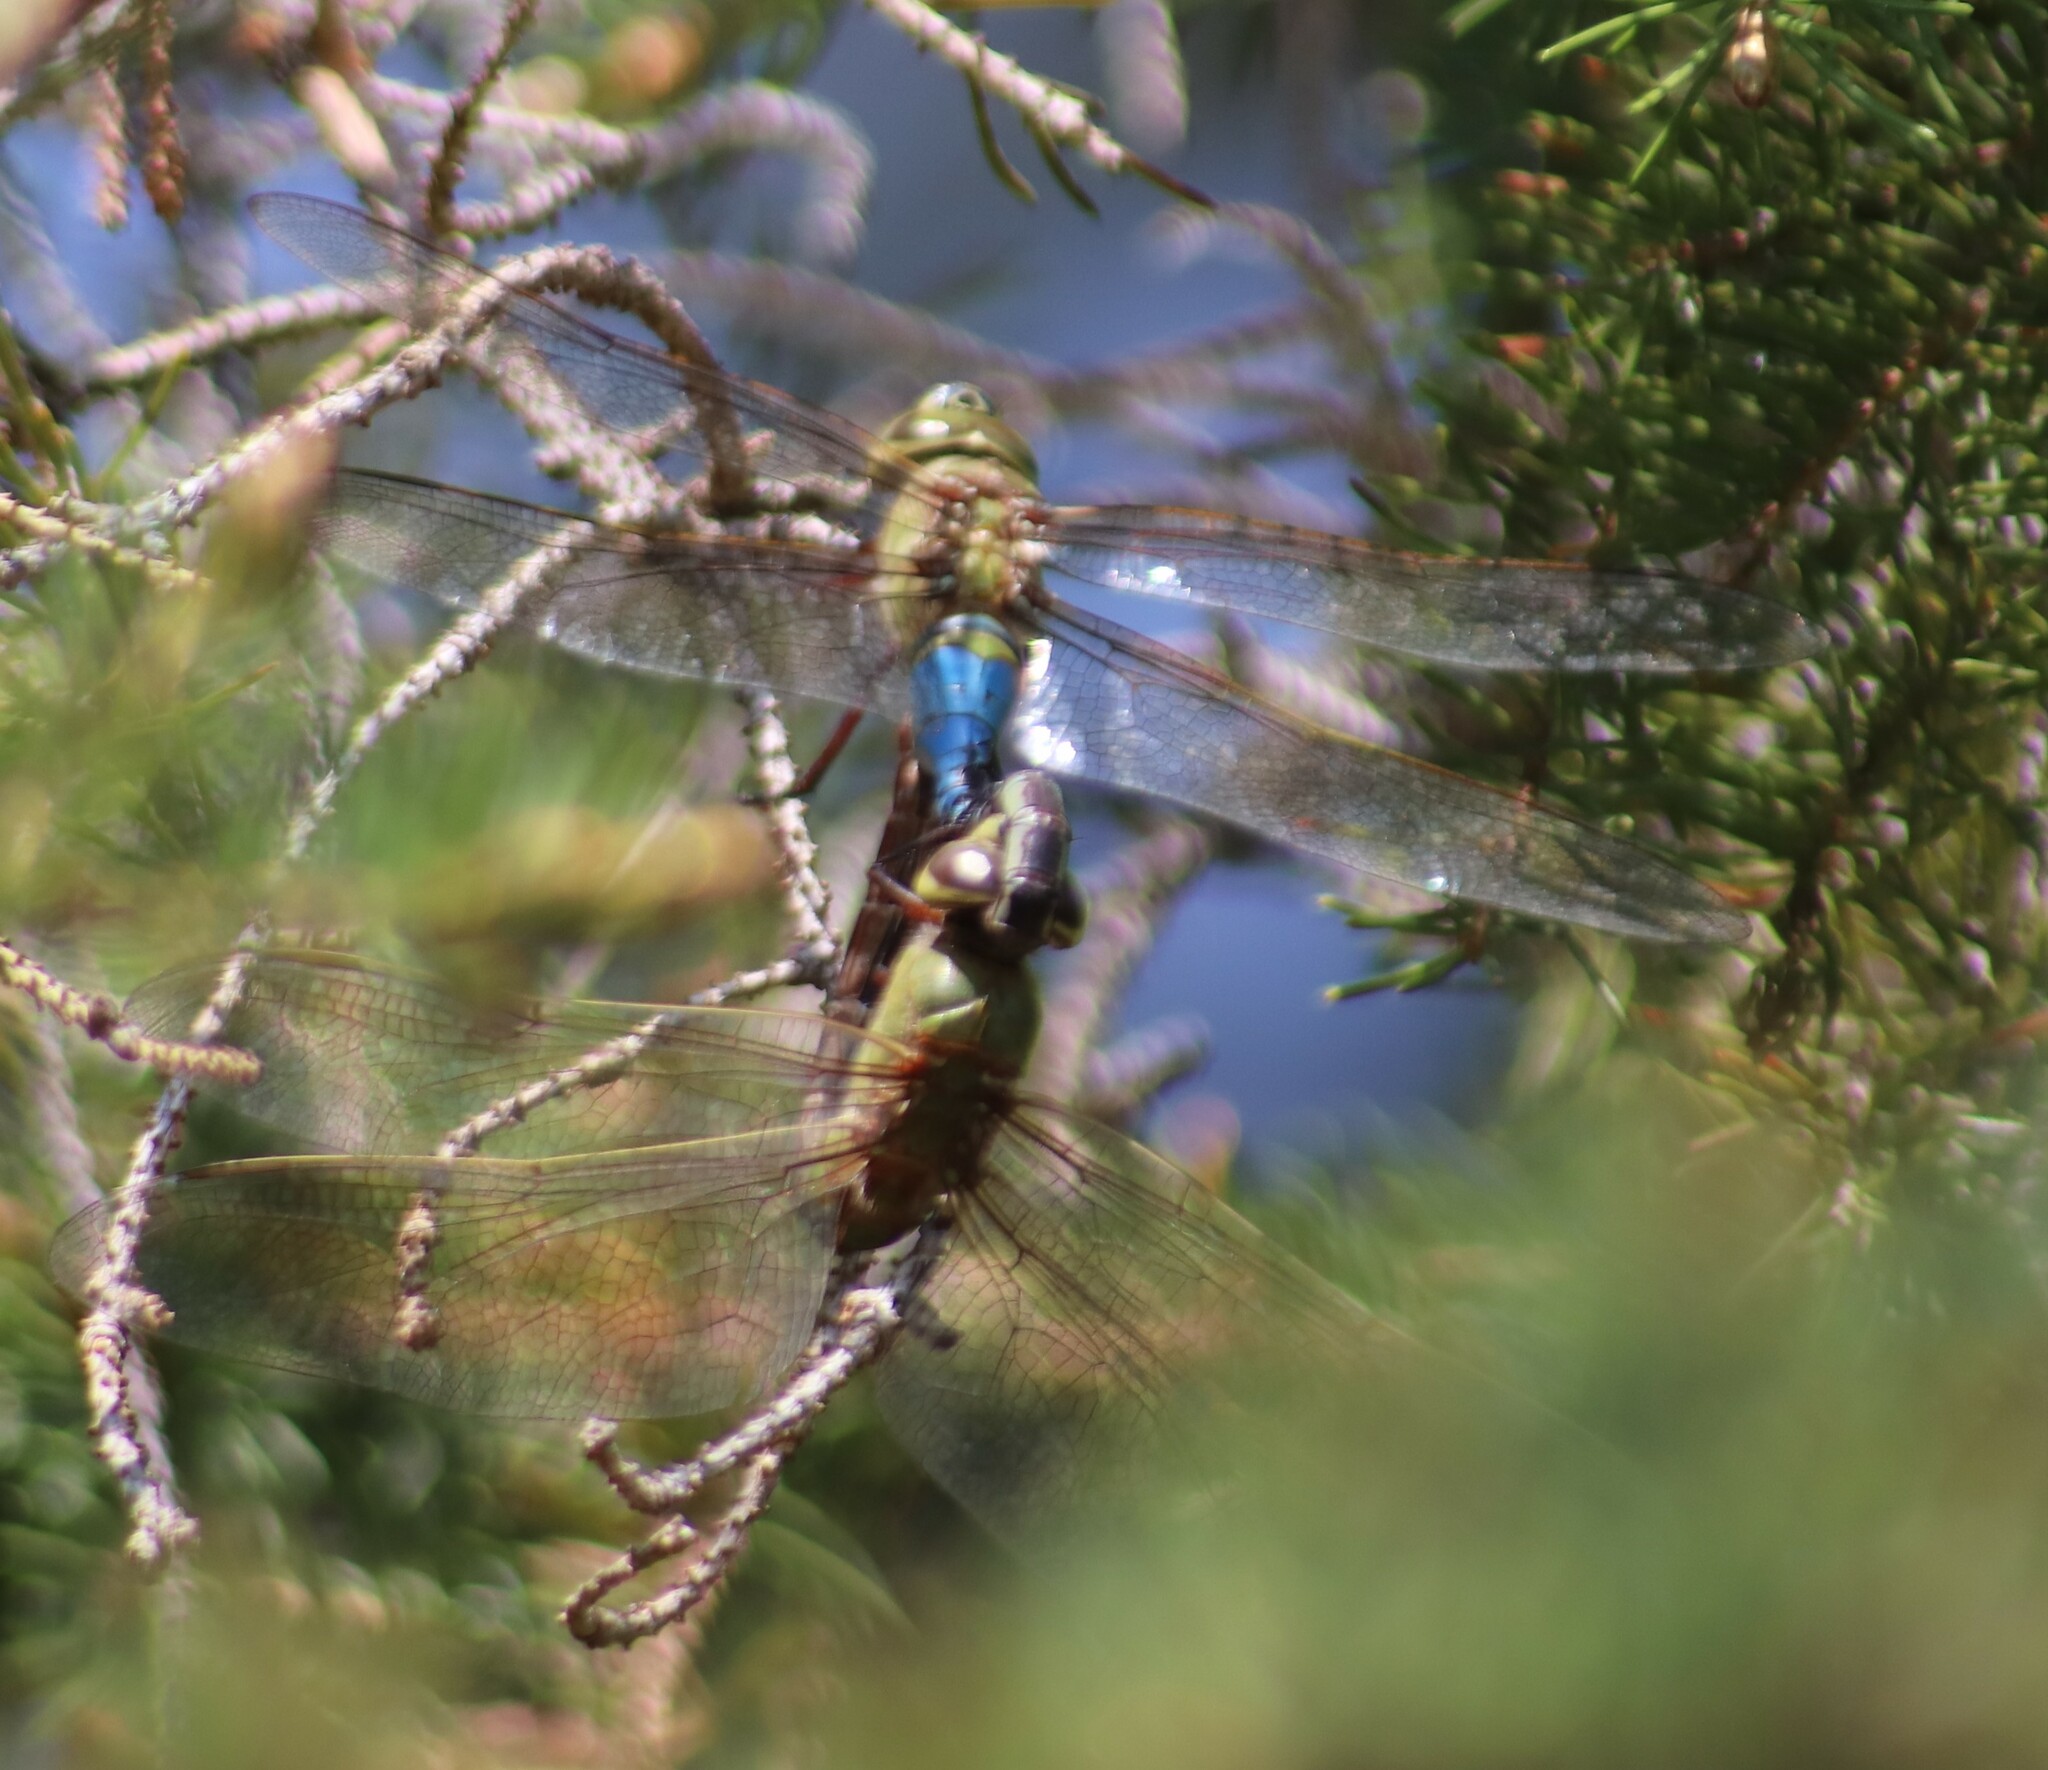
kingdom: Animalia
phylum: Arthropoda
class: Insecta
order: Odonata
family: Aeshnidae
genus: Anax
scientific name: Anax junius
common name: Common green darner
